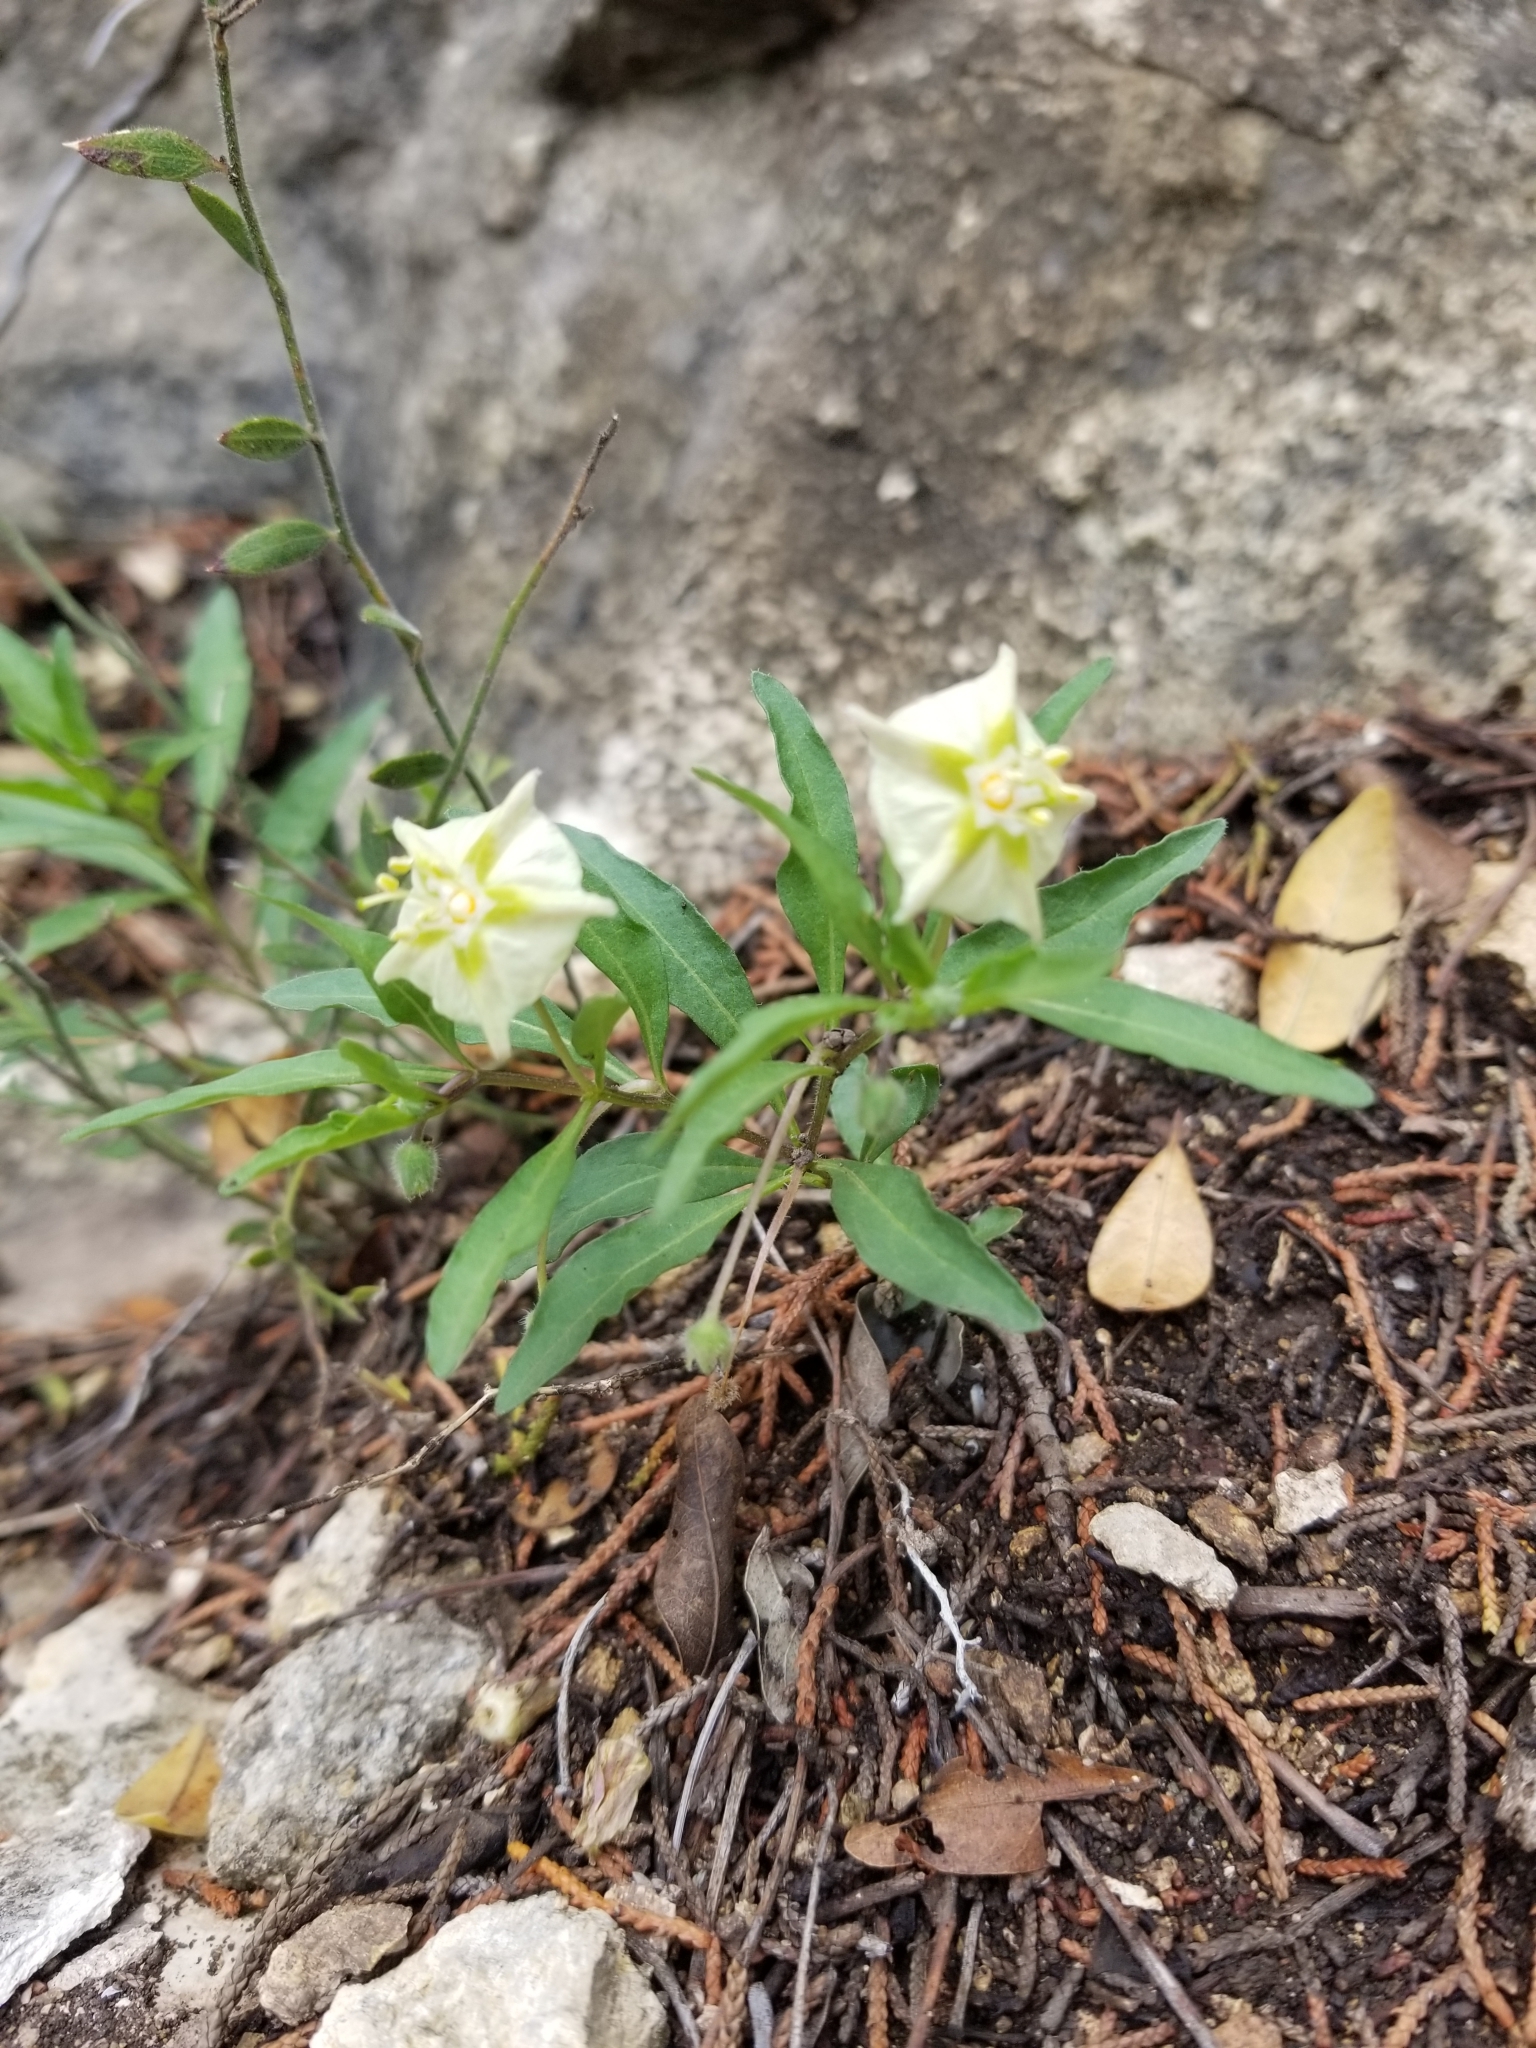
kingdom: Plantae
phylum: Tracheophyta
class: Magnoliopsida
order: Solanales
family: Solanaceae
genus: Chamaesaracha
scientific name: Chamaesaracha edwardsiana
